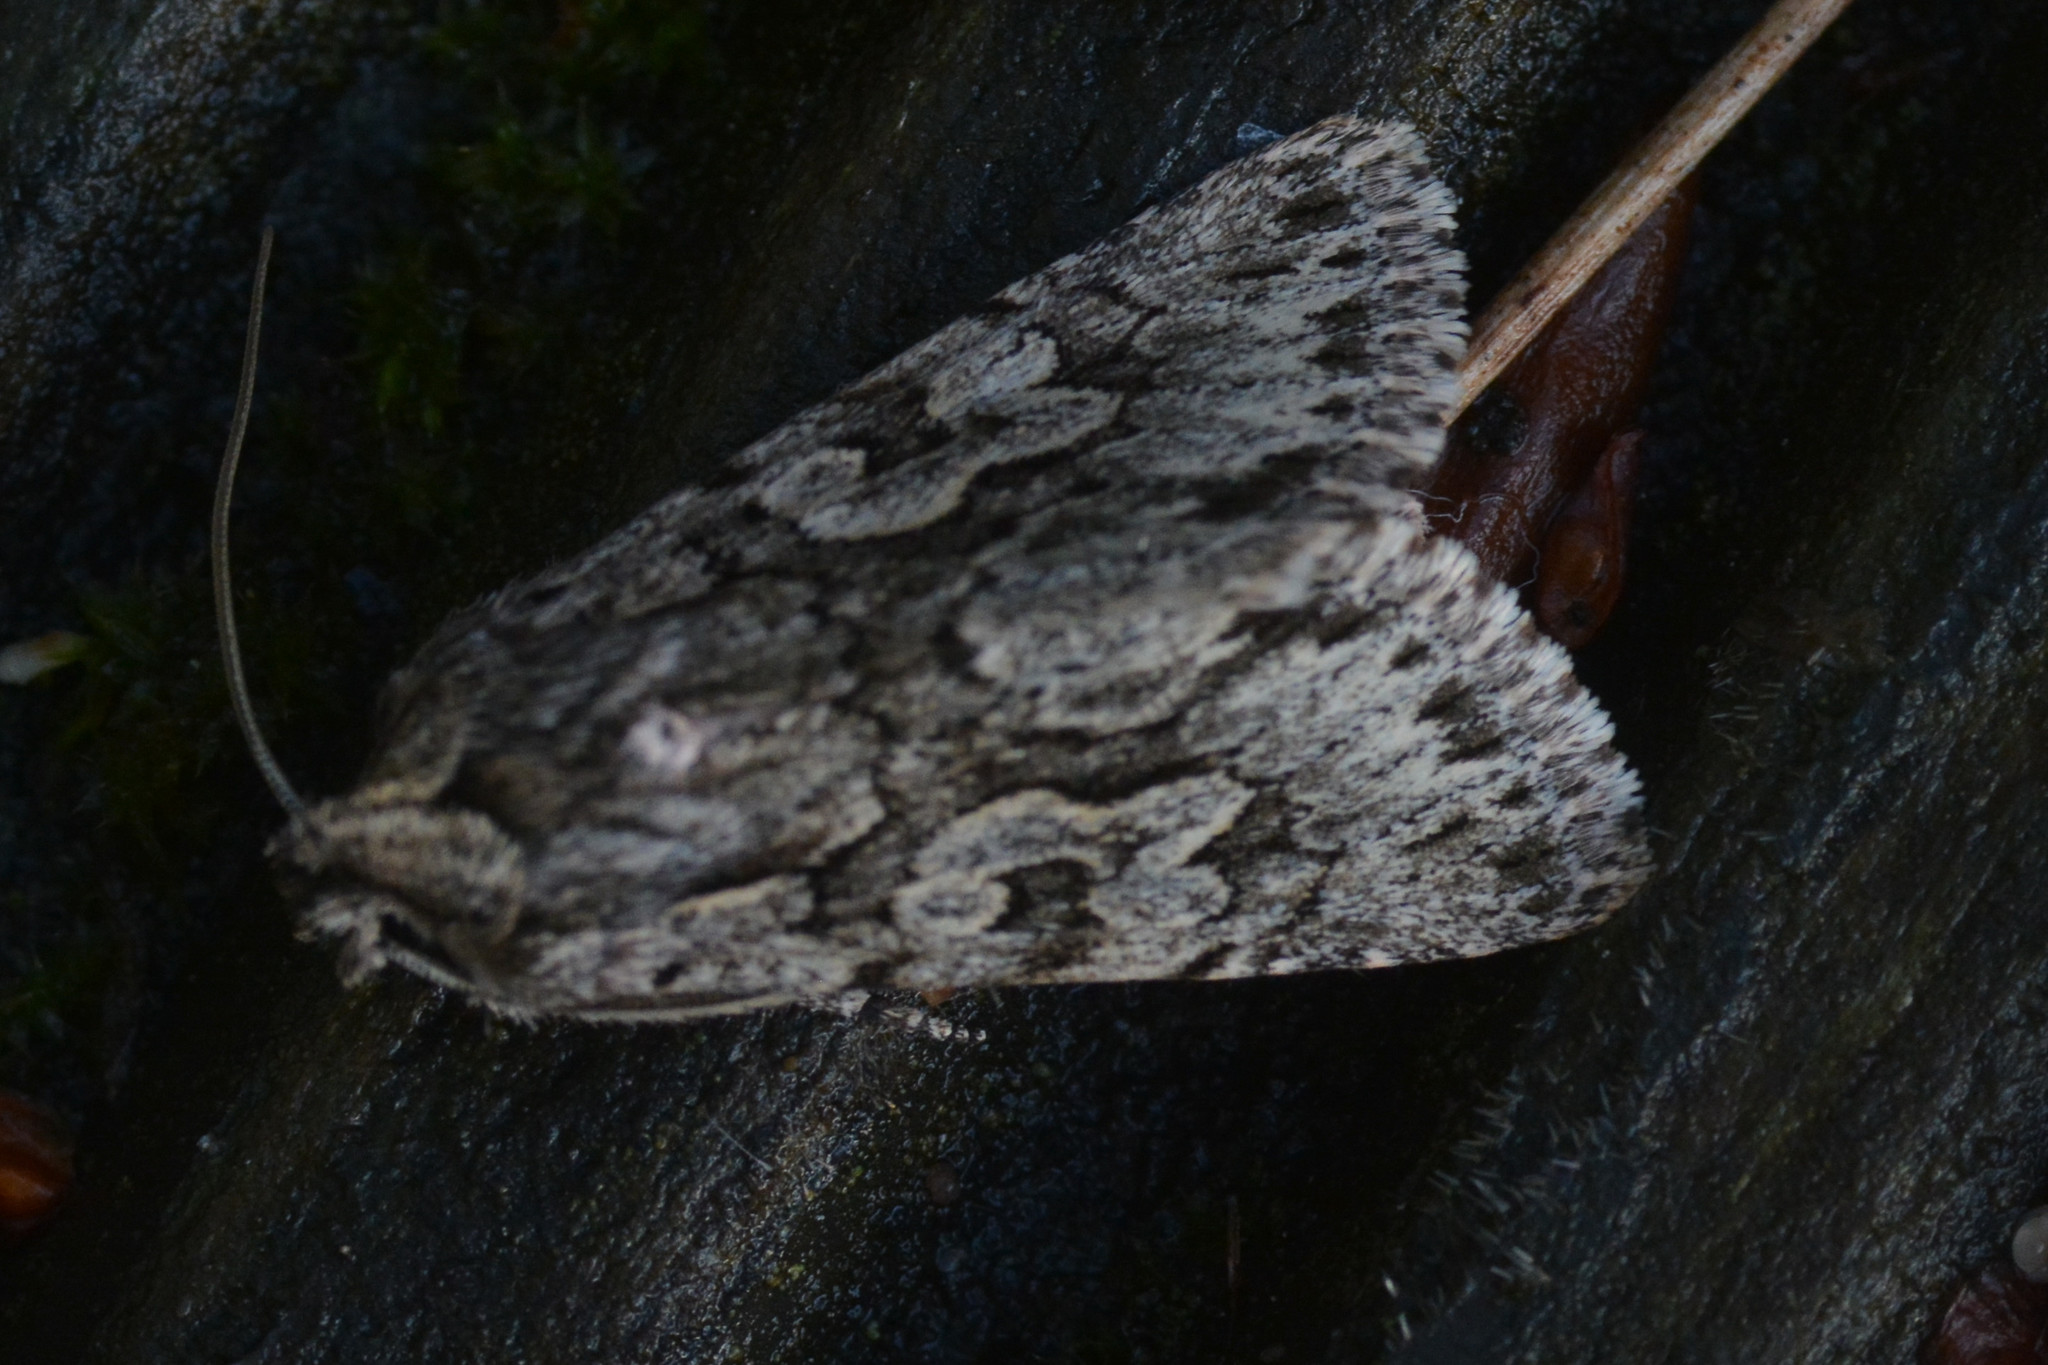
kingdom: Animalia
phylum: Arthropoda
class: Insecta
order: Lepidoptera
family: Noctuidae
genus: Xylocampa
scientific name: Xylocampa areola
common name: Early grey
